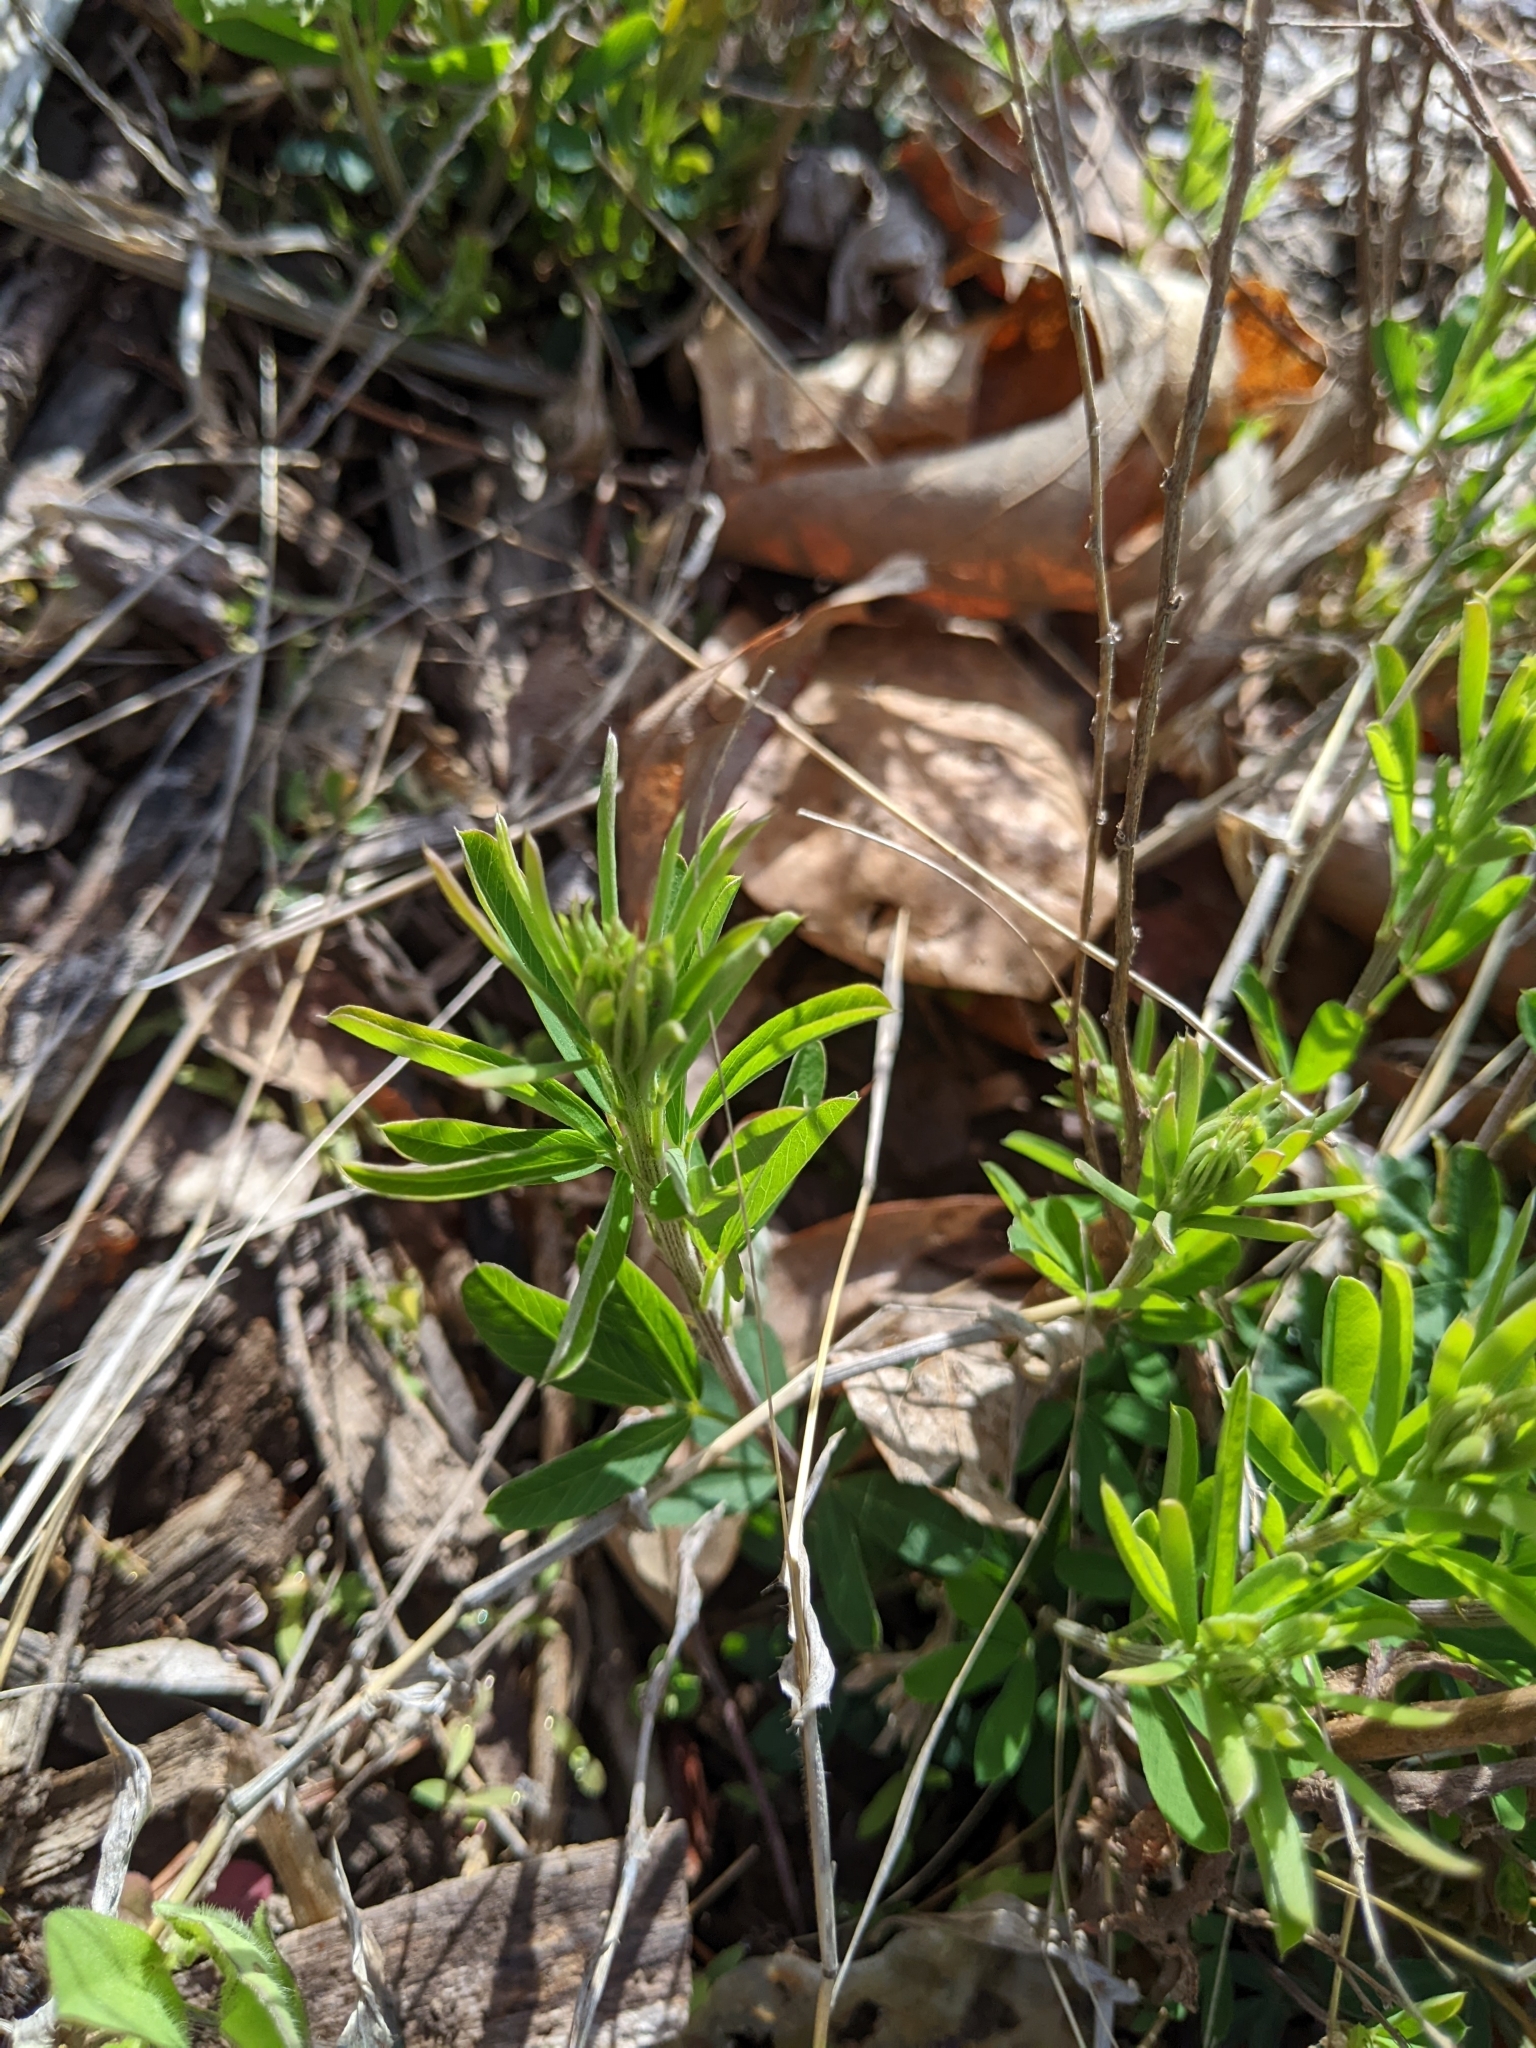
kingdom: Plantae
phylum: Tracheophyta
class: Magnoliopsida
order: Fabales
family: Fabaceae
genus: Lespedeza
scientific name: Lespedeza cuneata
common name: Chinese bush-clover
